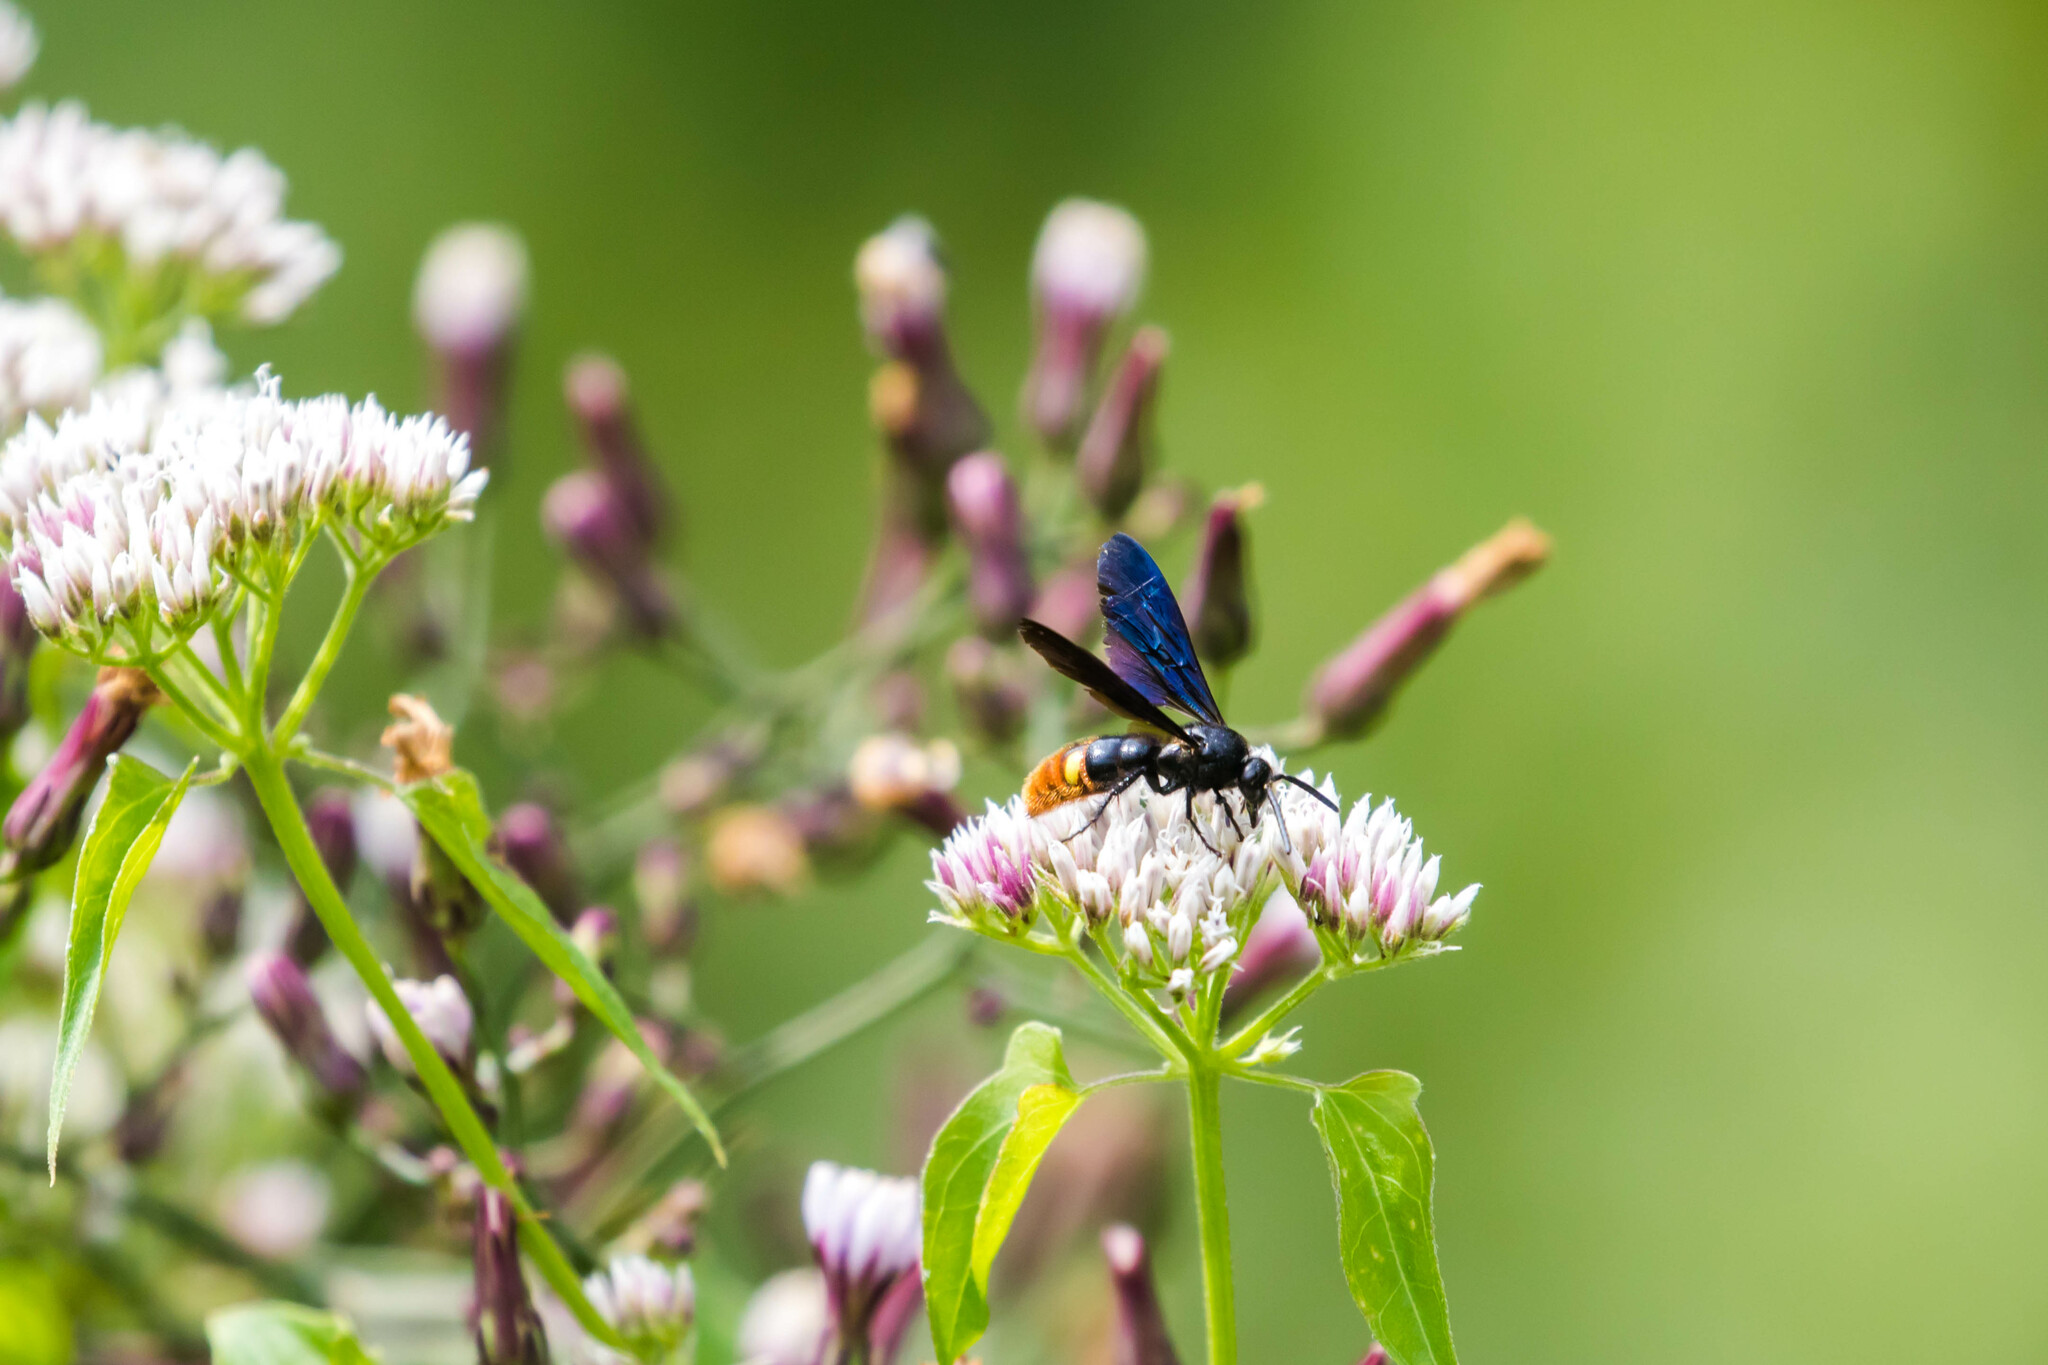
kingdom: Animalia
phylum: Arthropoda
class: Insecta
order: Hymenoptera
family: Scoliidae
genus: Scolia
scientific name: Scolia dubia
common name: Blue-winged scoliid wasp
